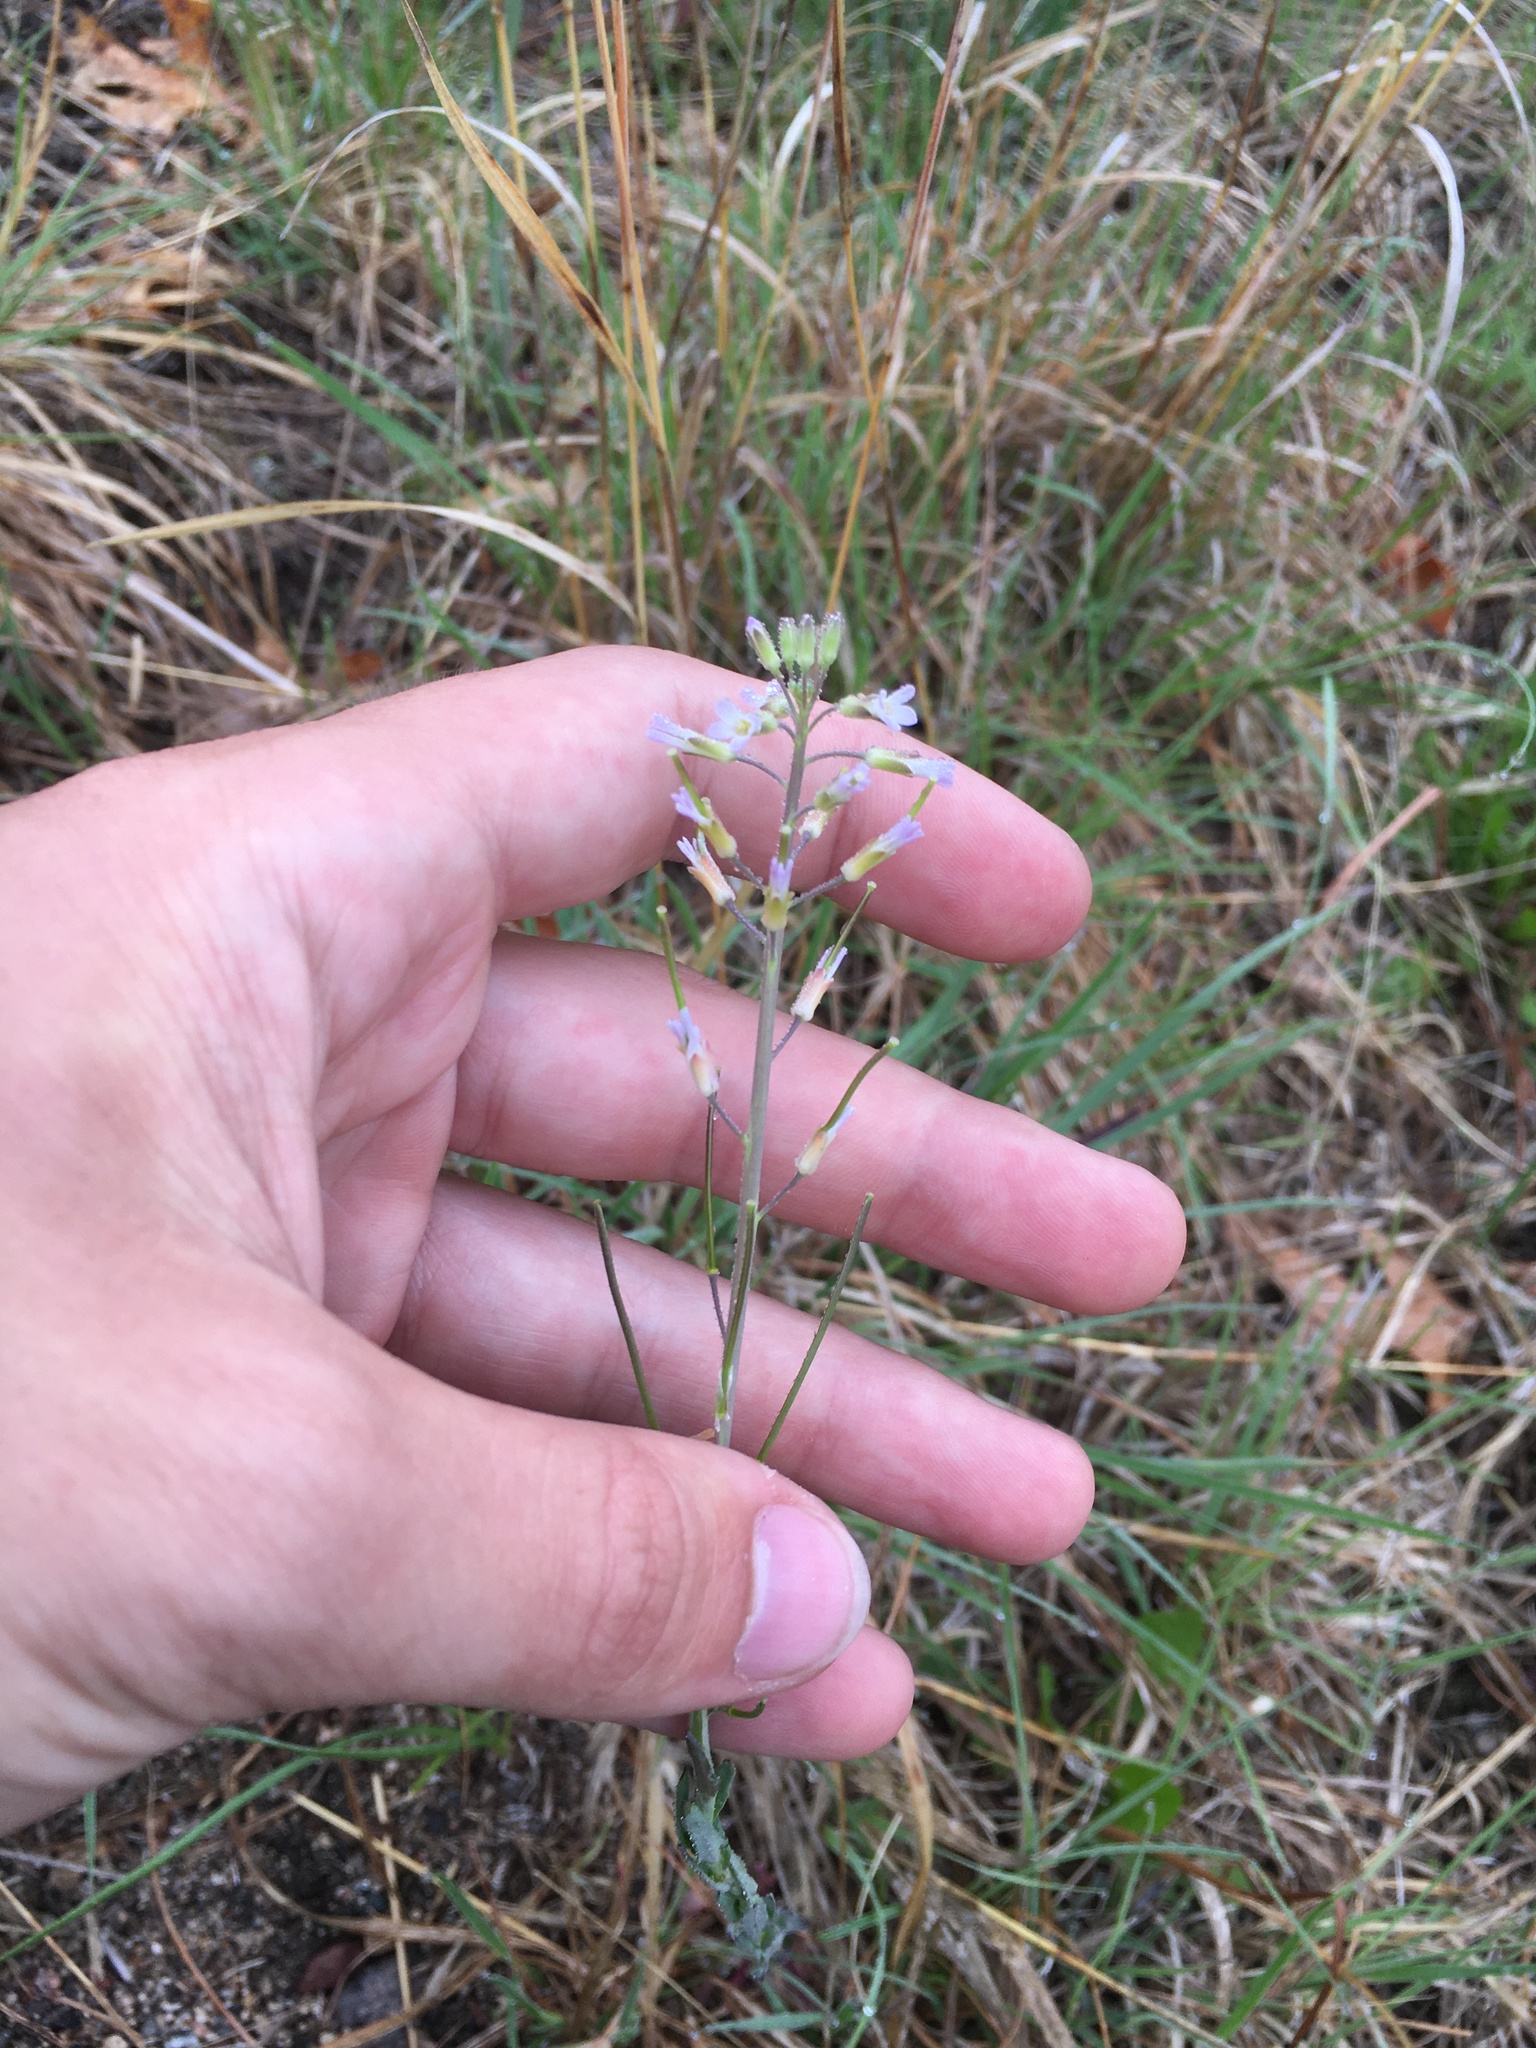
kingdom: Plantae
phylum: Tracheophyta
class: Magnoliopsida
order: Brassicales
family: Brassicaceae
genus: Boechera
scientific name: Boechera grahamii
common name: Graham's rockcress
